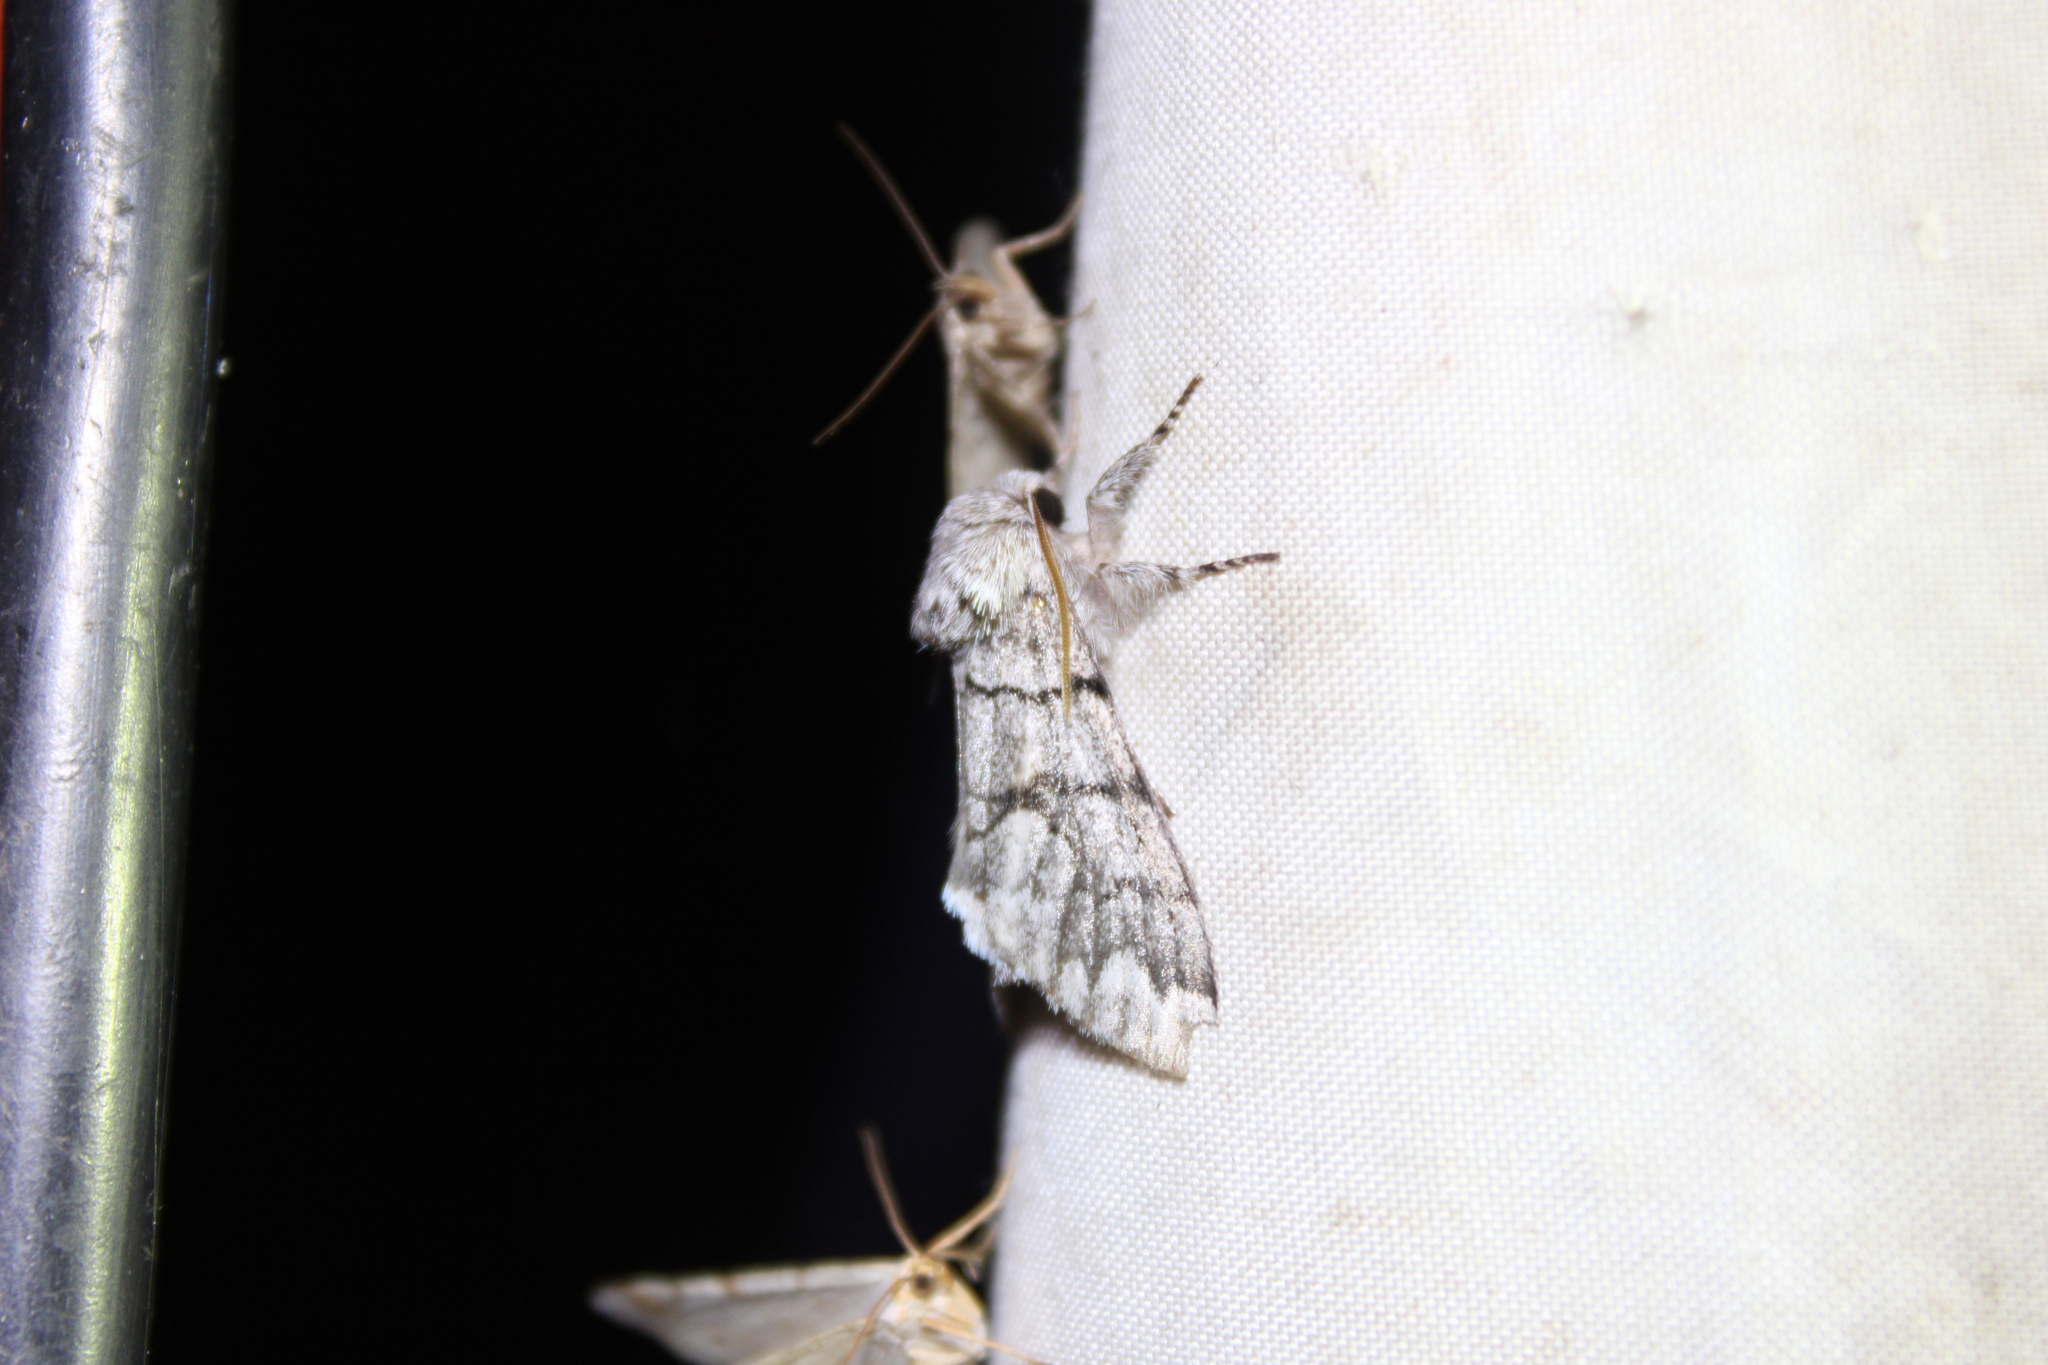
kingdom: Animalia
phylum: Arthropoda
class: Insecta
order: Lepidoptera
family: Noctuidae
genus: Panthea
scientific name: Panthea furcilla
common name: Eastern panthea moth
